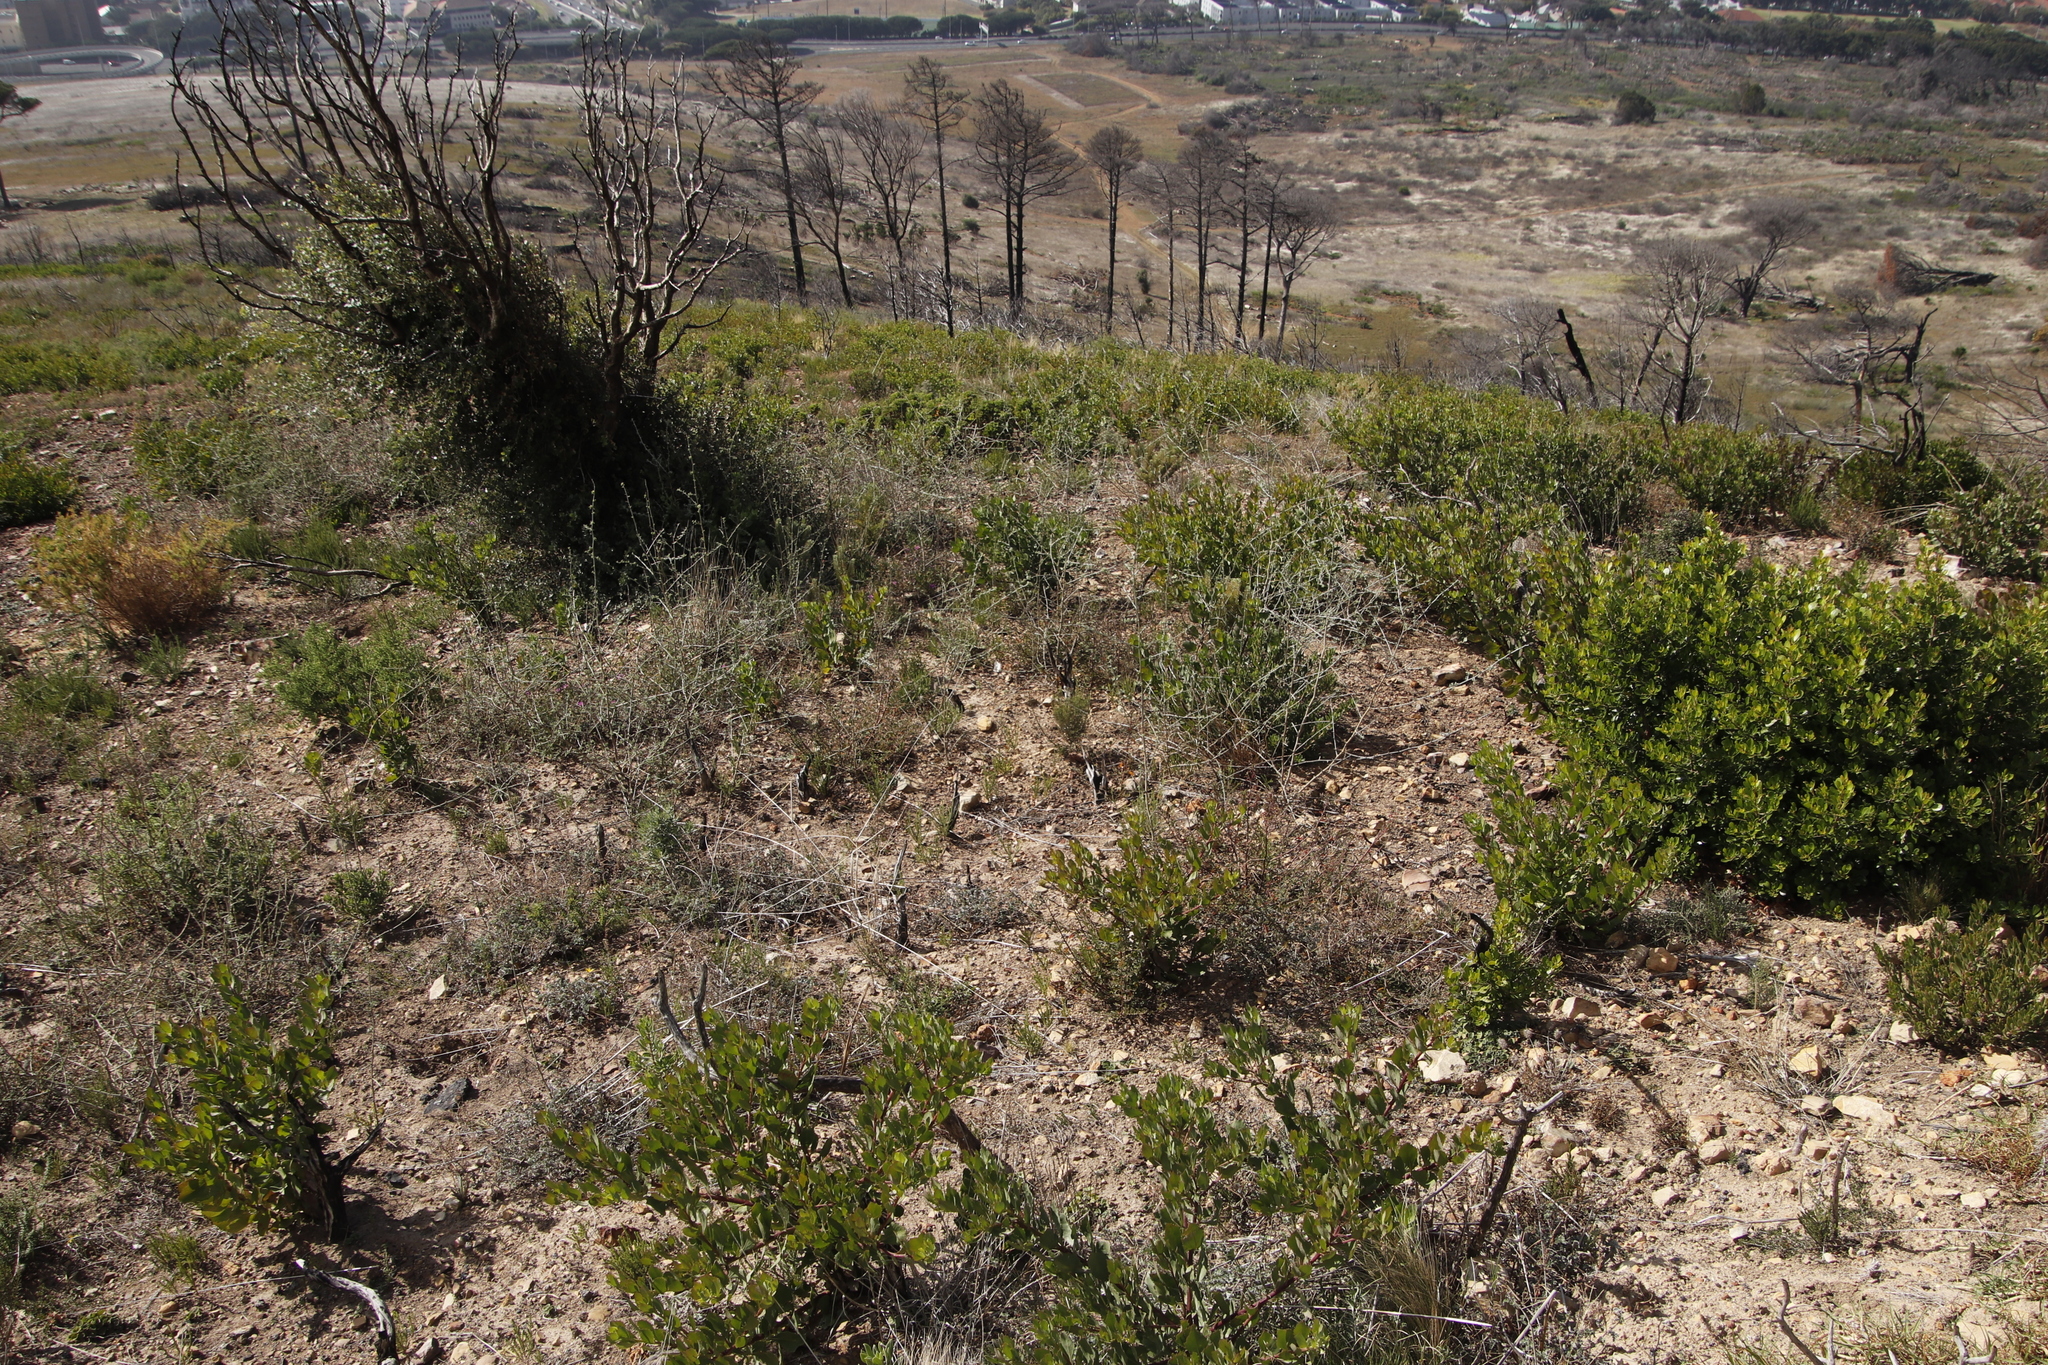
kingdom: Plantae
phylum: Tracheophyta
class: Magnoliopsida
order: Fabales
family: Fabaceae
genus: Psoralea
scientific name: Psoralea hirta
